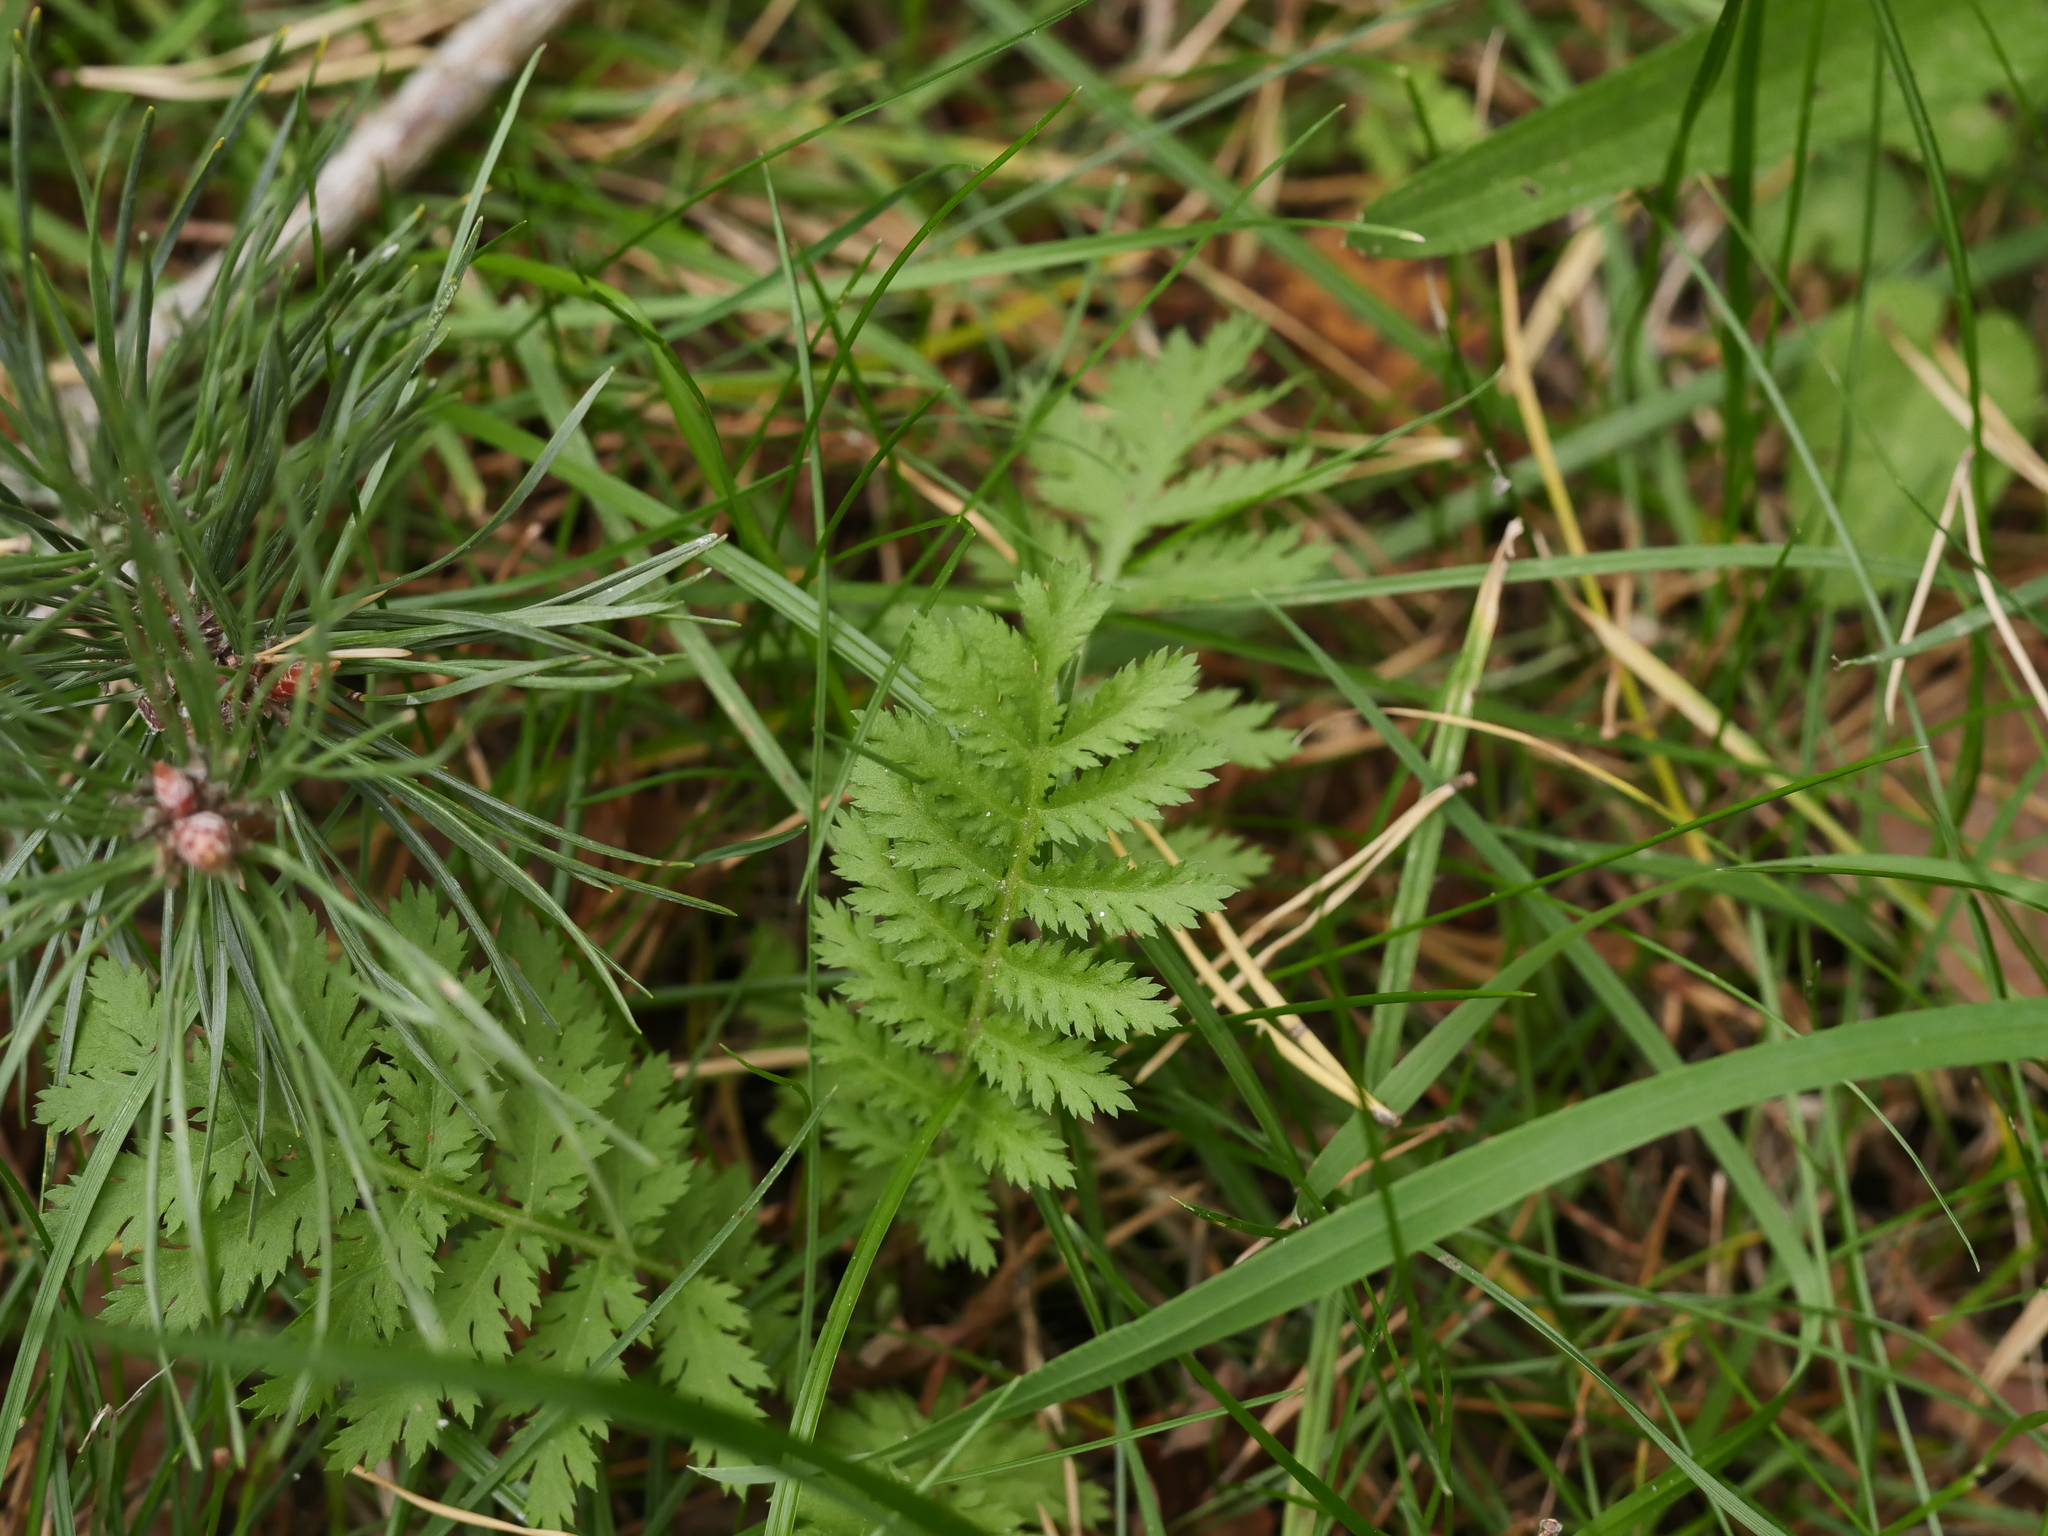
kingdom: Plantae
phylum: Tracheophyta
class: Magnoliopsida
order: Asterales
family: Asteraceae
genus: Tanacetum
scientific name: Tanacetum vulgare
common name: Common tansy
